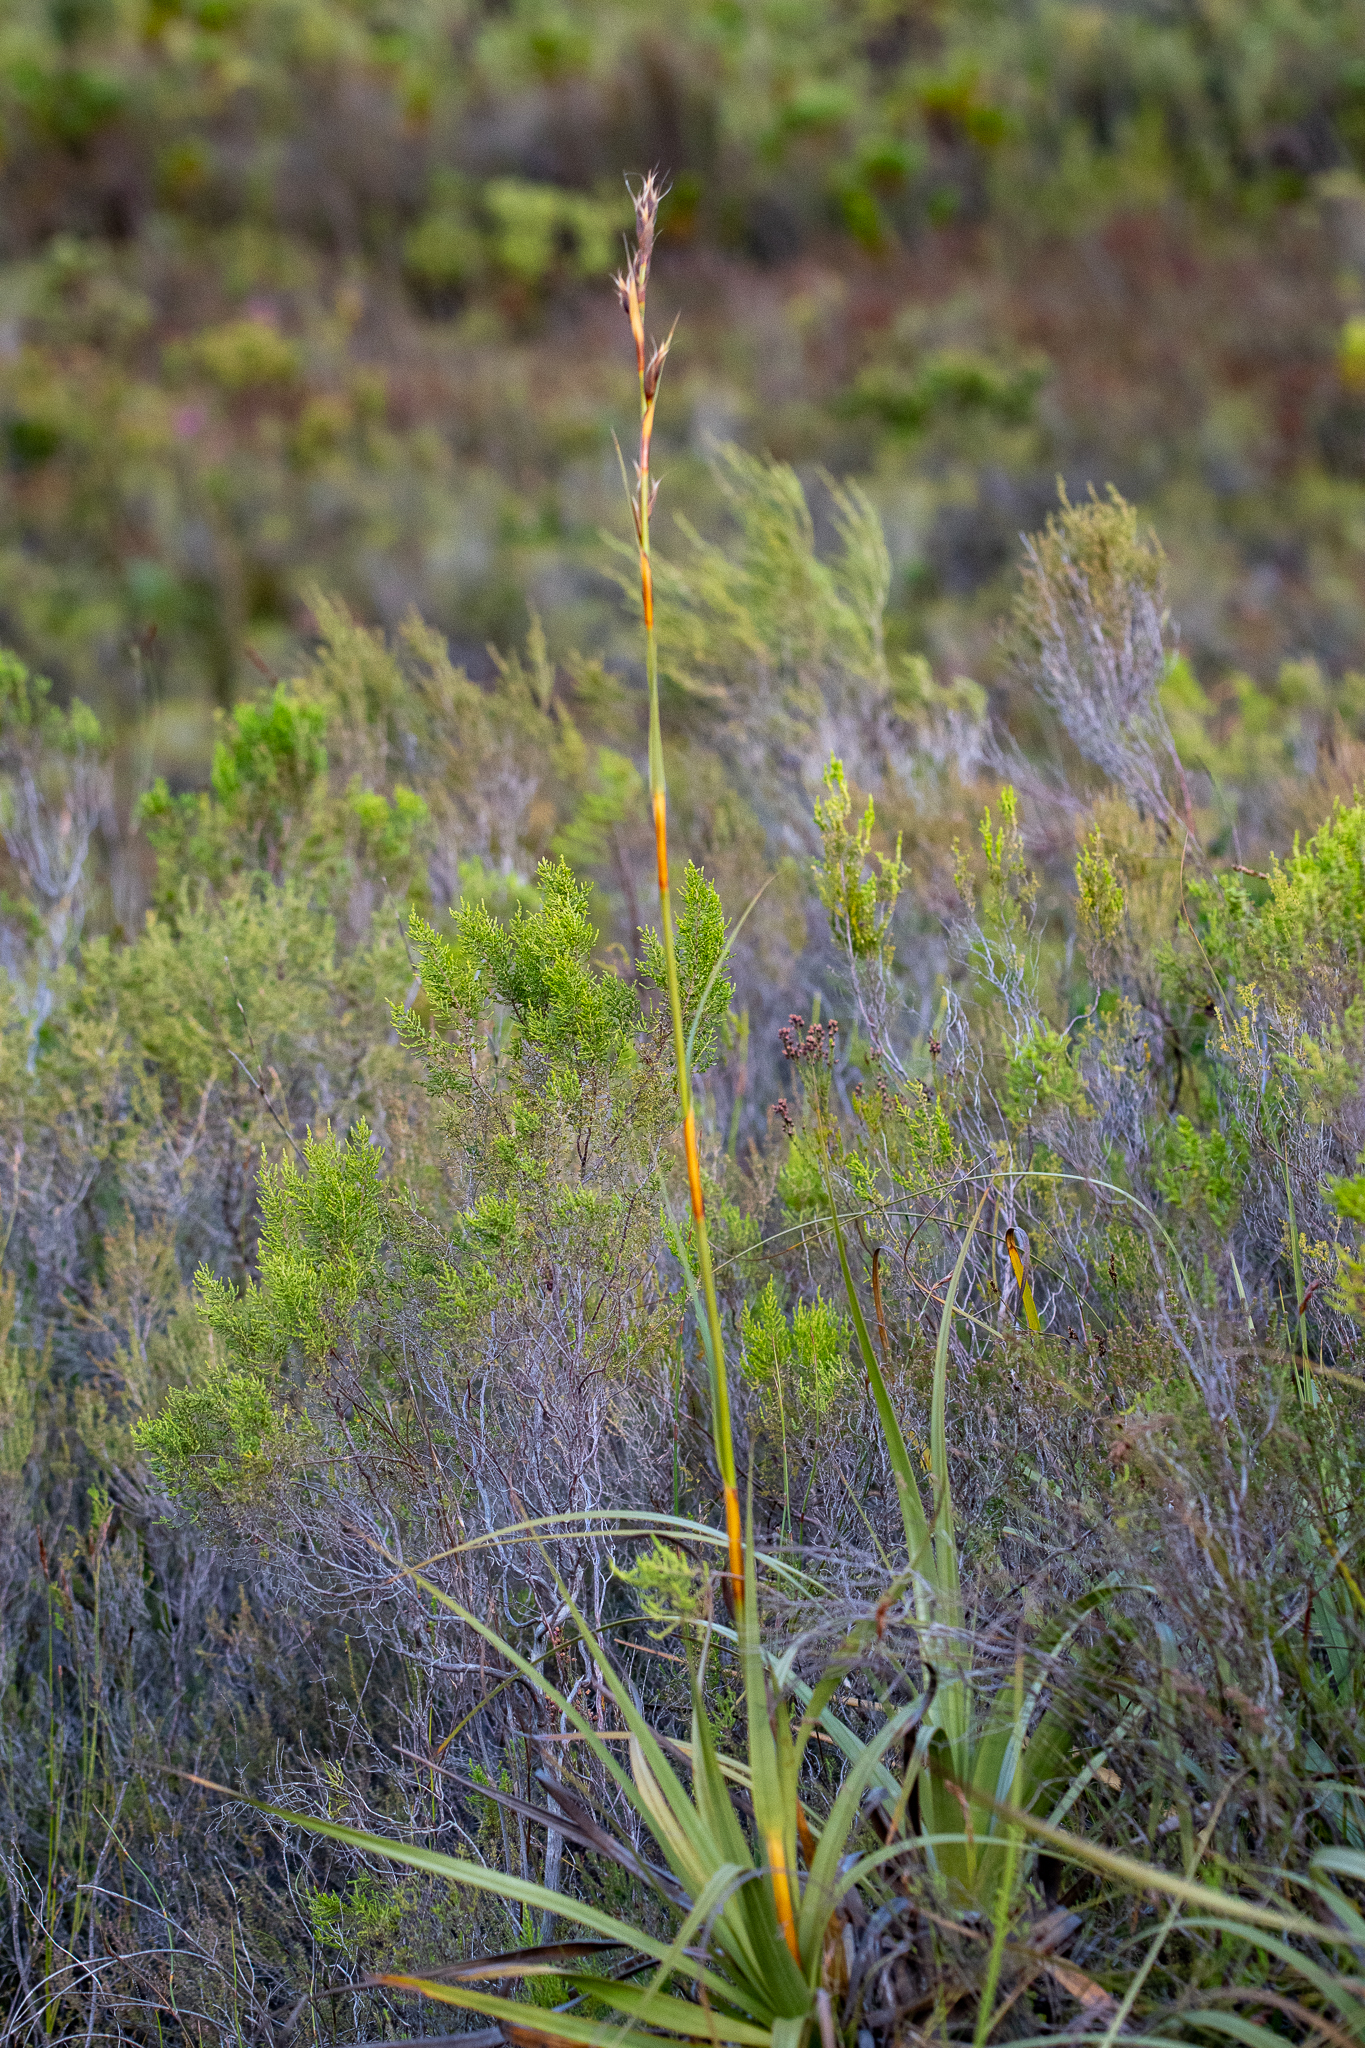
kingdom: Plantae
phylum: Tracheophyta
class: Liliopsida
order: Poales
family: Cyperaceae
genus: Tetraria
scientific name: Tetraria thermalis
